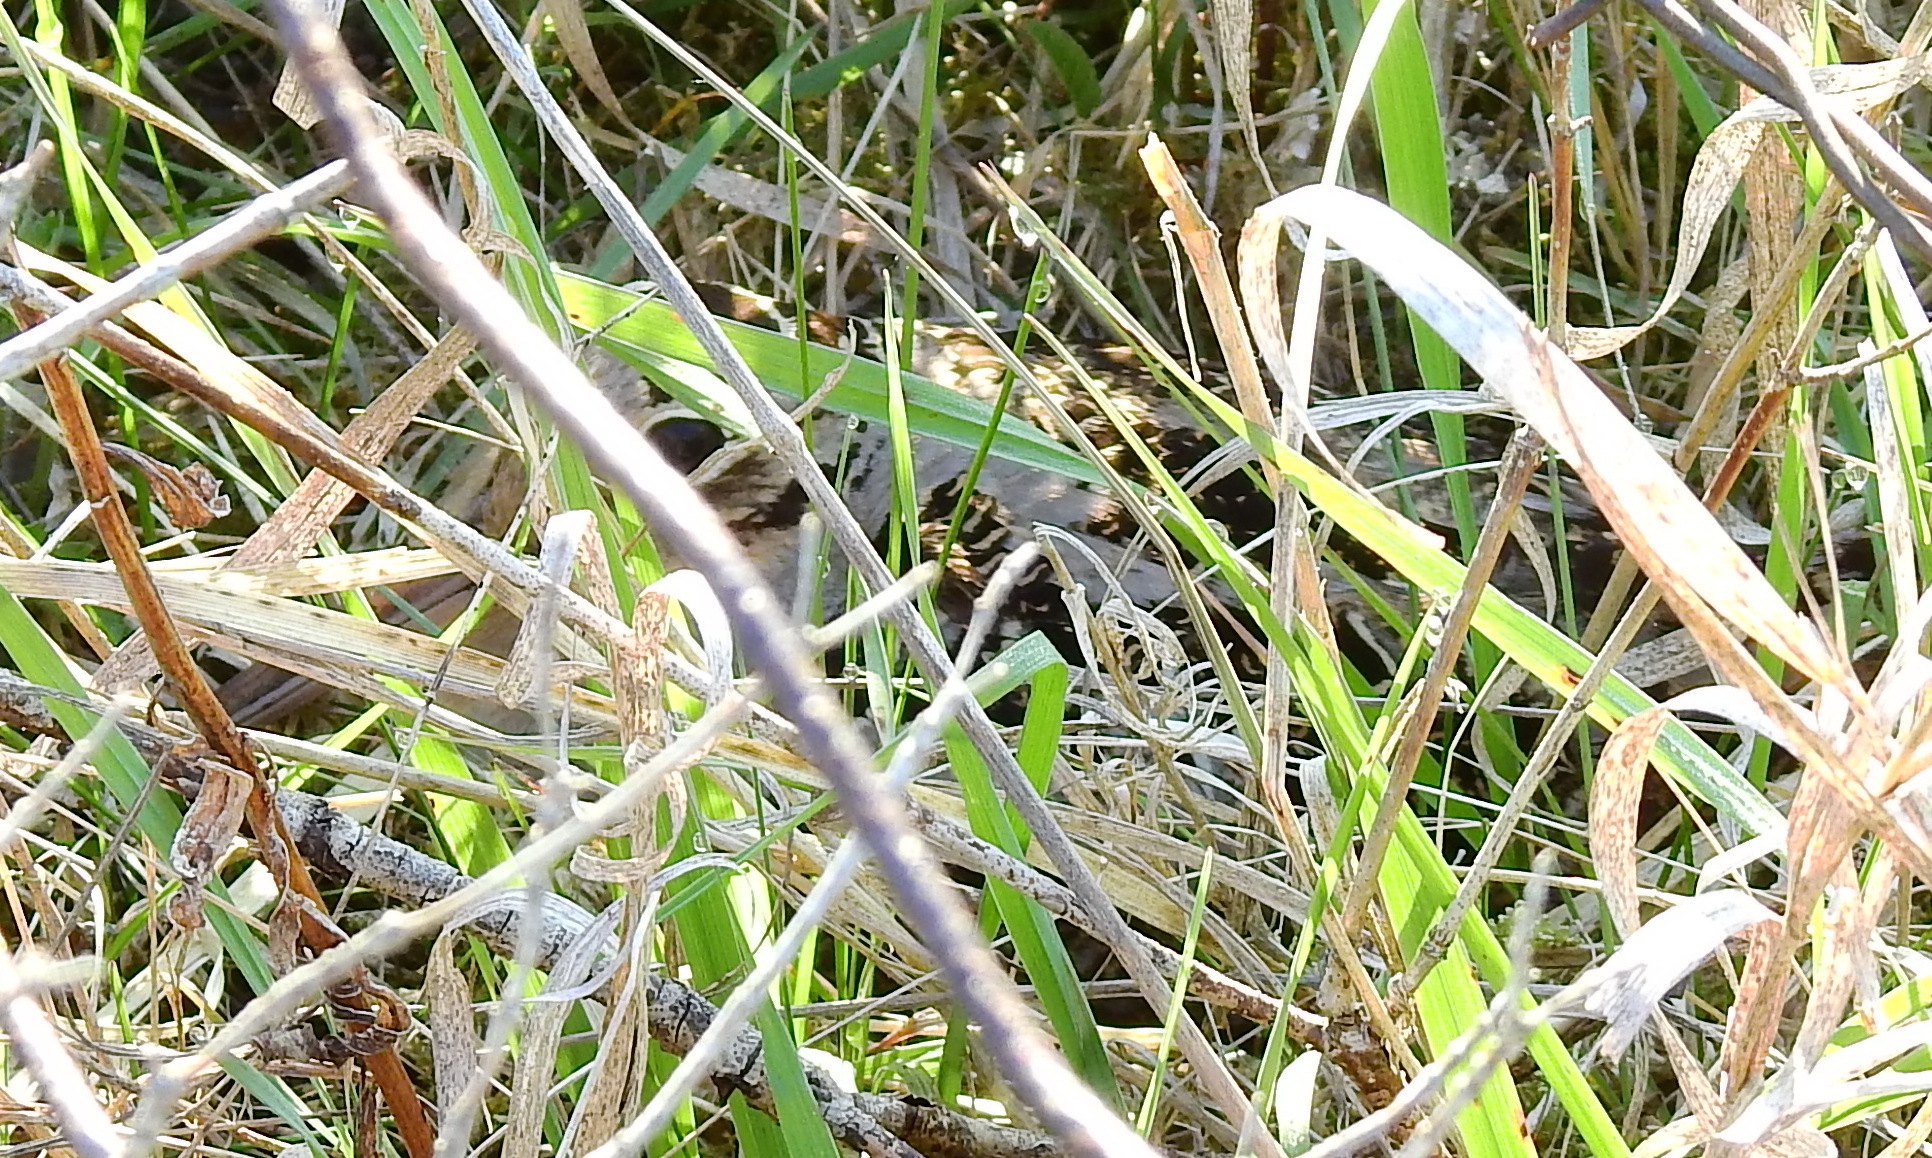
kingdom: Animalia
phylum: Chordata
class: Aves
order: Charadriiformes
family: Scolopacidae
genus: Scolopax
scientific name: Scolopax minor
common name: American woodcock
